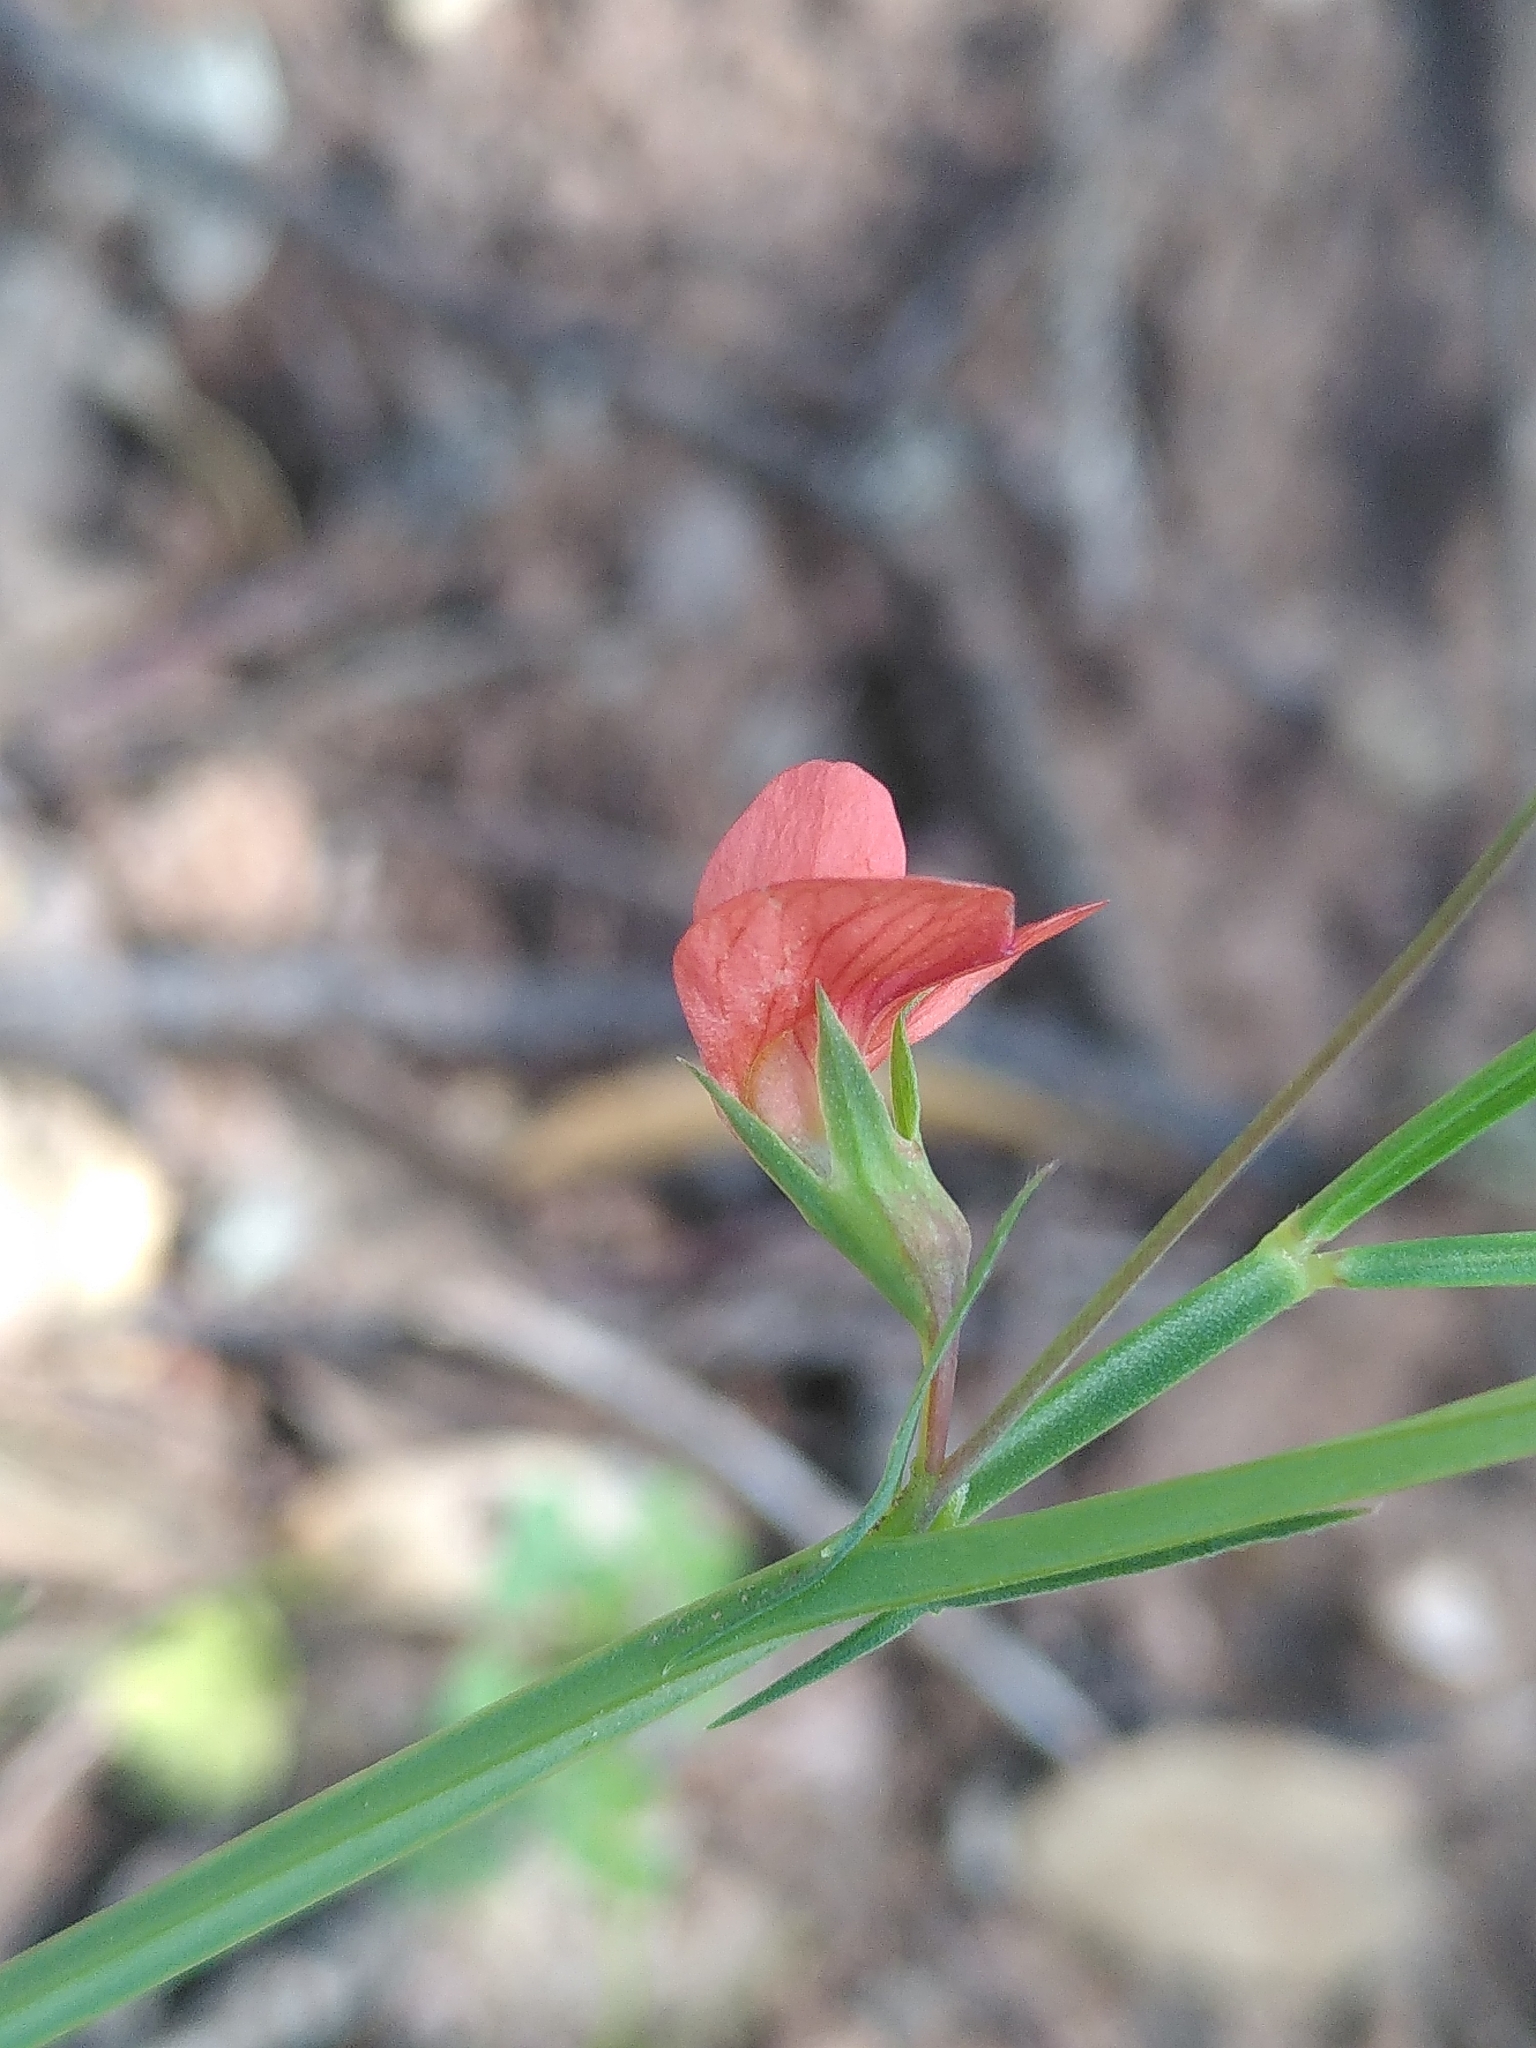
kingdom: Plantae
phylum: Tracheophyta
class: Magnoliopsida
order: Fabales
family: Fabaceae
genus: Lathyrus
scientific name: Lathyrus sphaericus
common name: Grass pea
